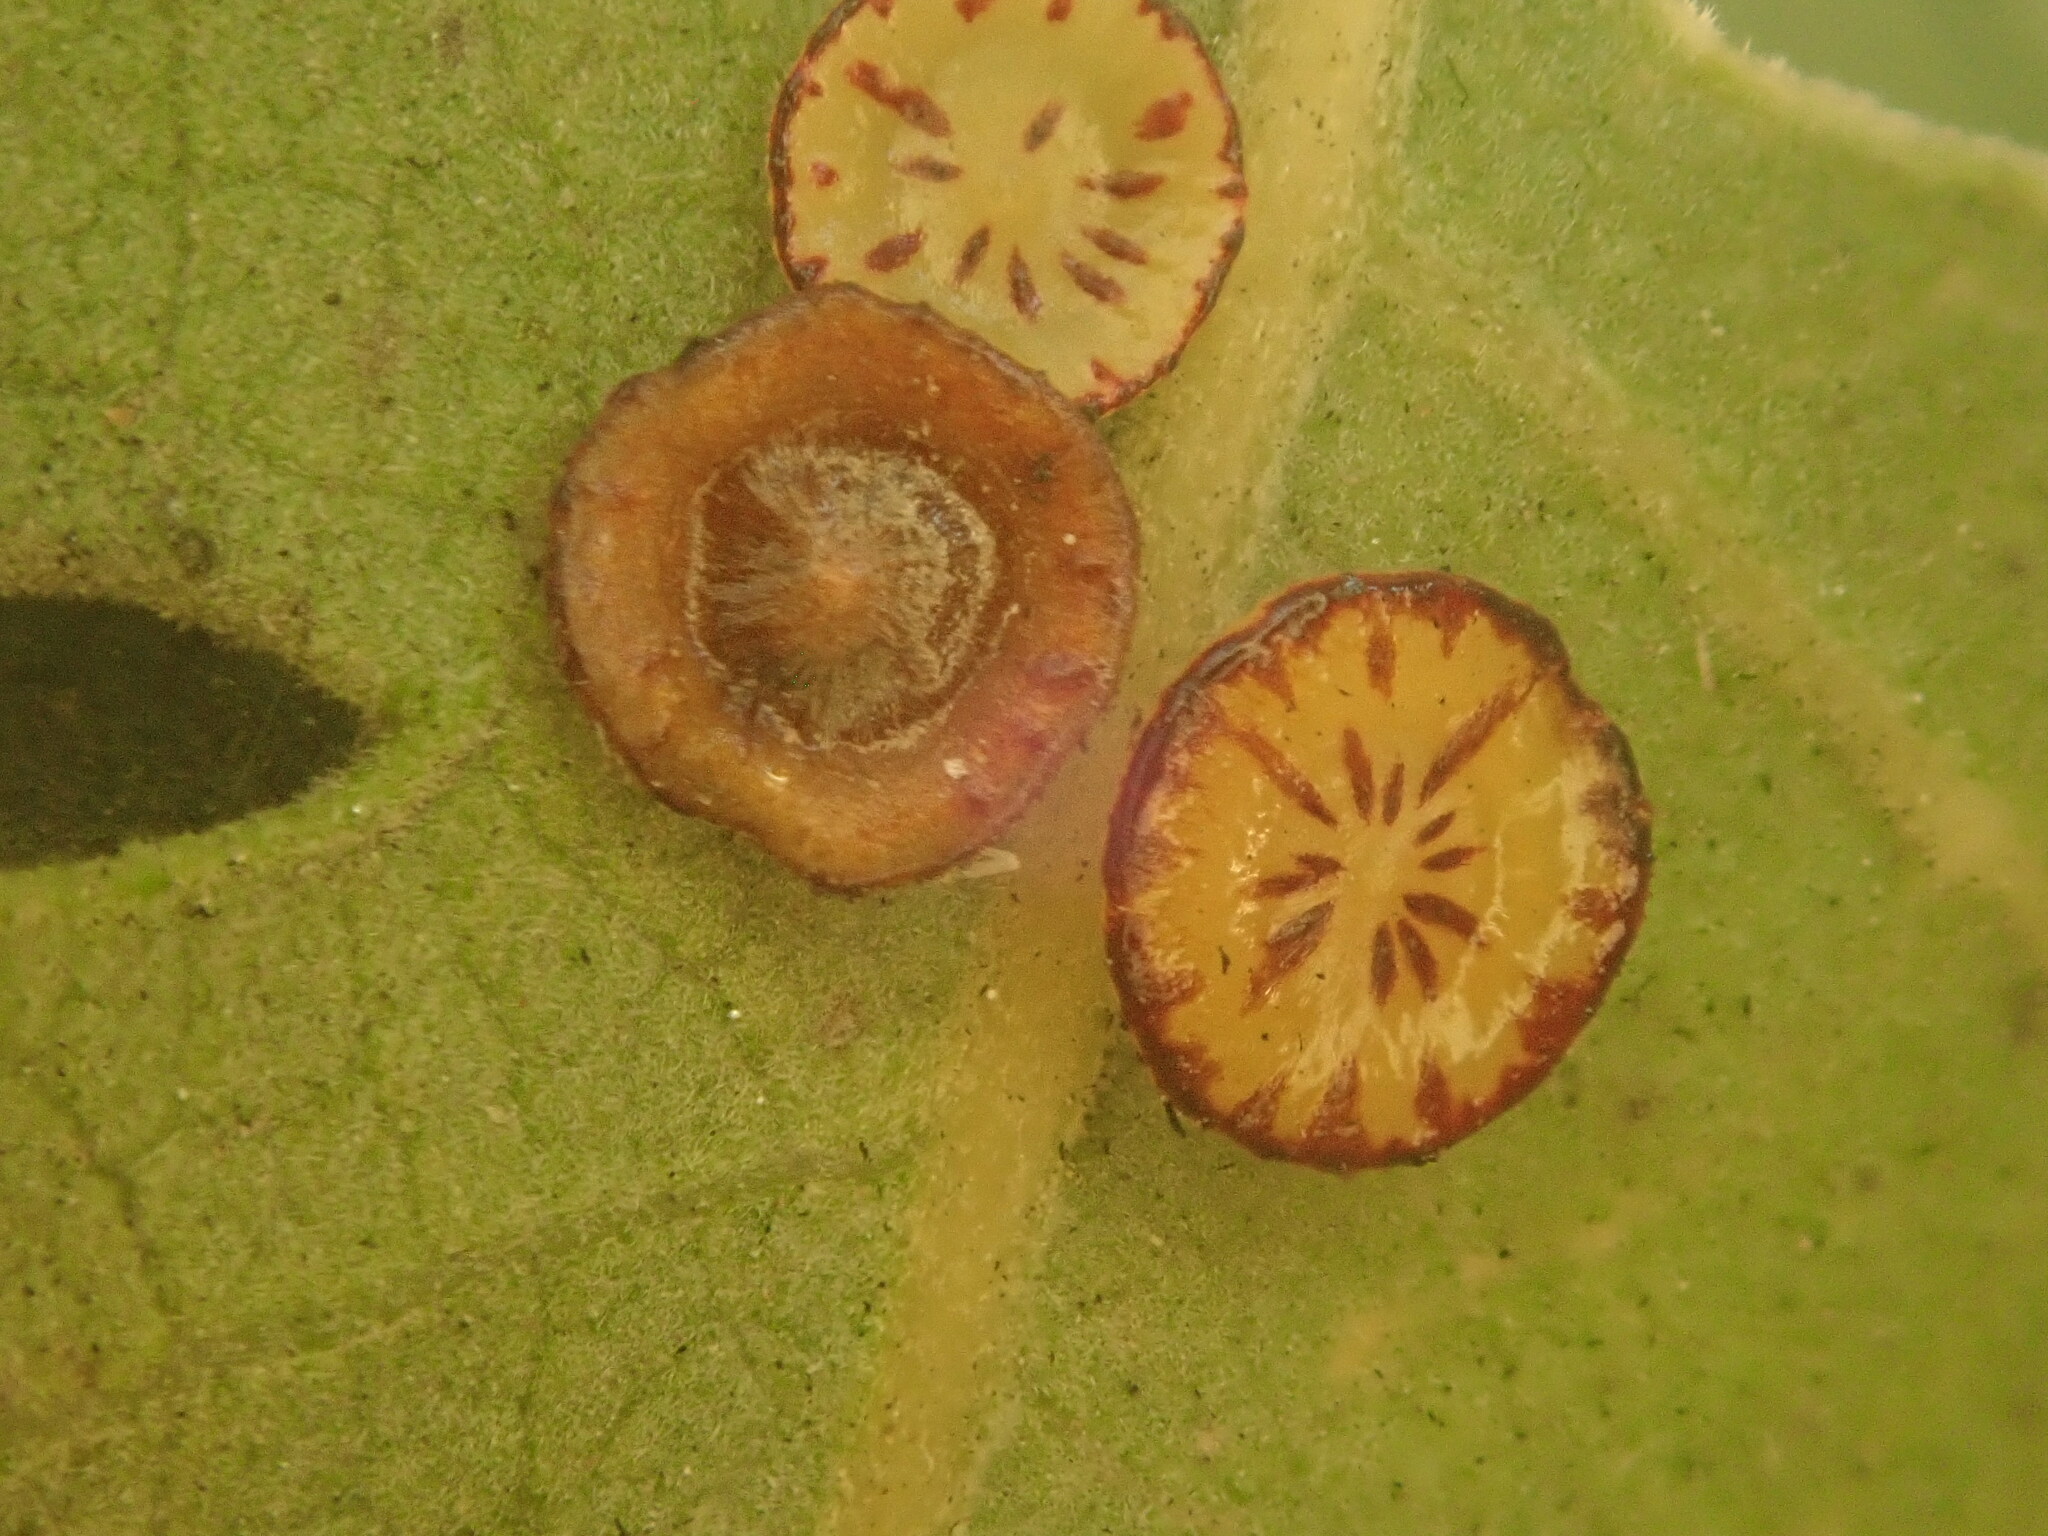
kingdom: Animalia
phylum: Arthropoda
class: Insecta
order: Hymenoptera
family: Cynipidae
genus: Andricus
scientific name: Andricus
